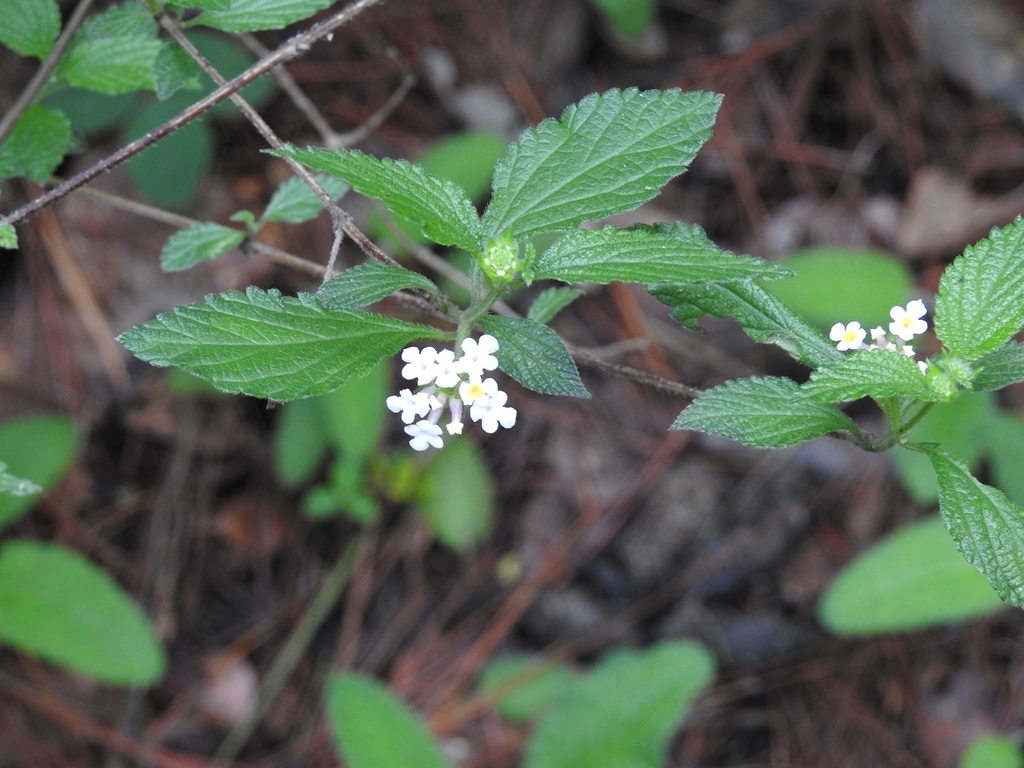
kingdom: Plantae
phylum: Tracheophyta
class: Magnoliopsida
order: Lamiales
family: Verbenaceae
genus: Lantana
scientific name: Lantana hirta
